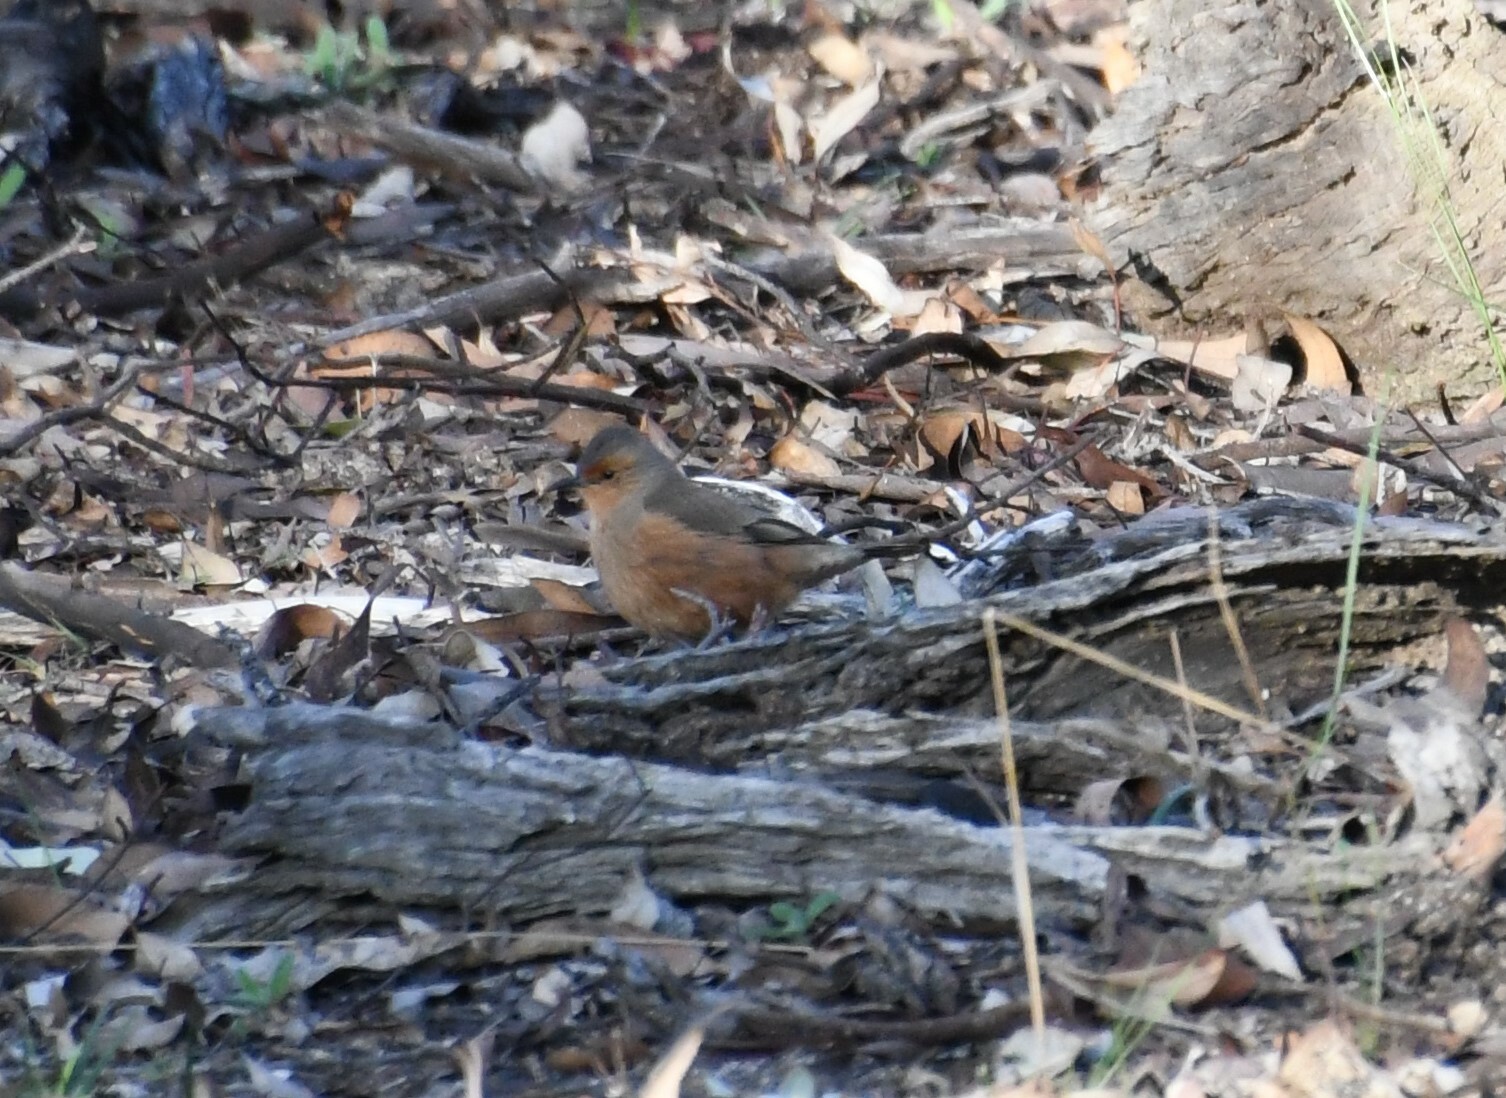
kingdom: Animalia
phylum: Chordata
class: Aves
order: Passeriformes
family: Climacteridae
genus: Climacteris
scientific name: Climacteris rufus
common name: Rufous treecreeper
